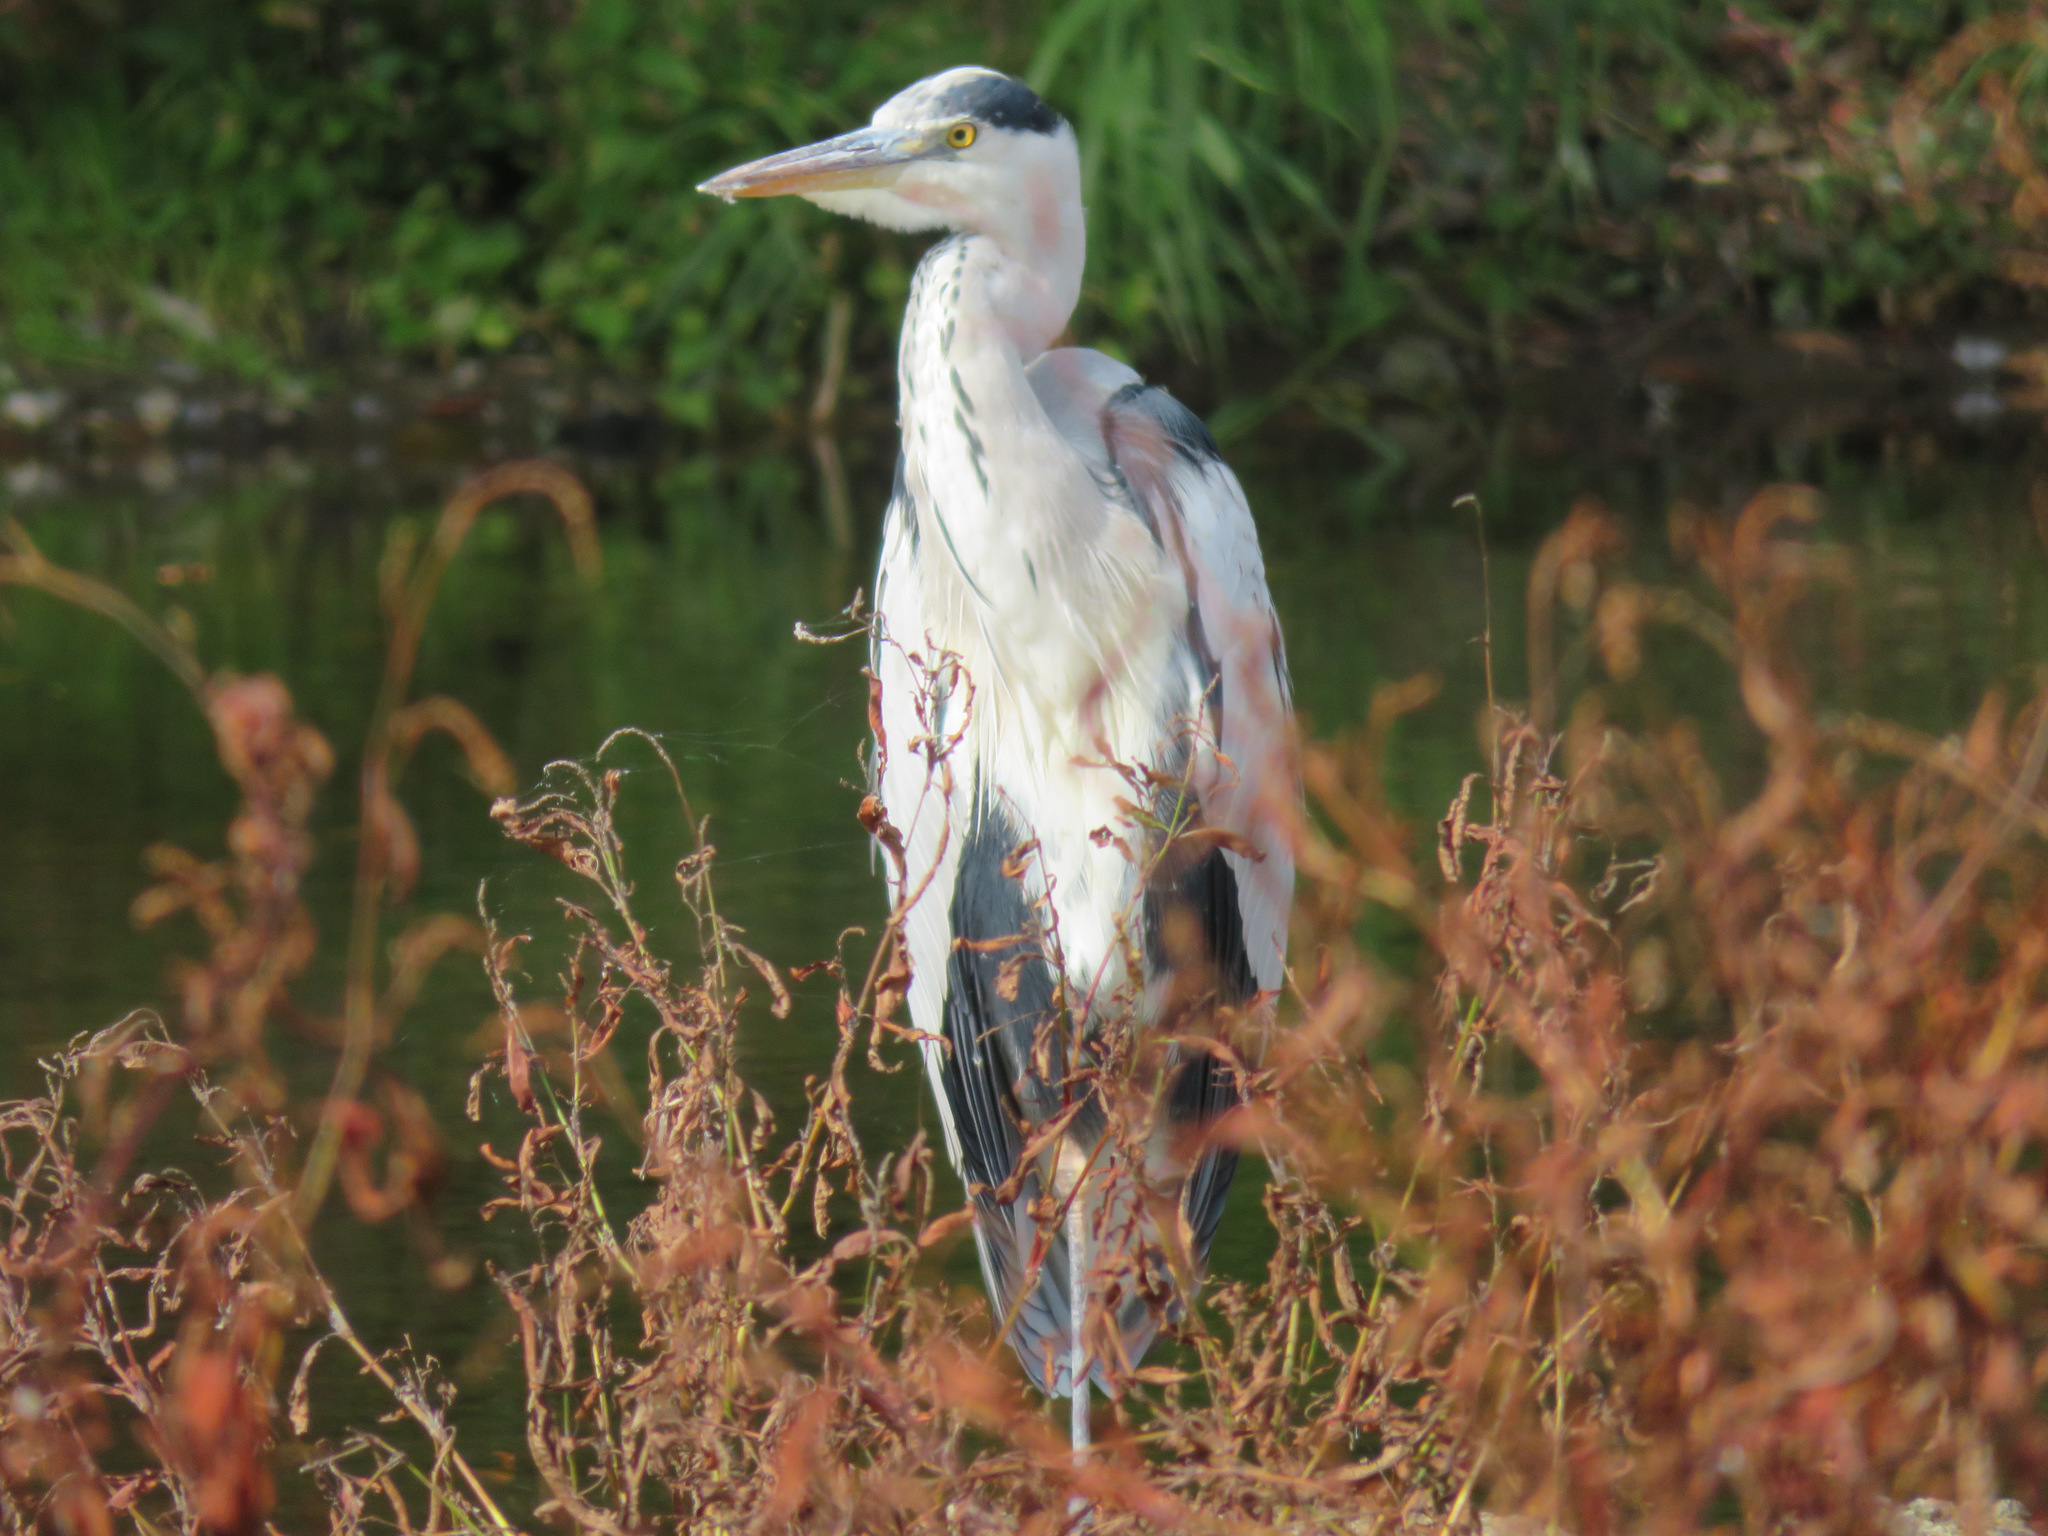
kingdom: Animalia
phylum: Chordata
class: Aves
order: Pelecaniformes
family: Ardeidae
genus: Ardea
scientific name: Ardea cinerea
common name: Grey heron
